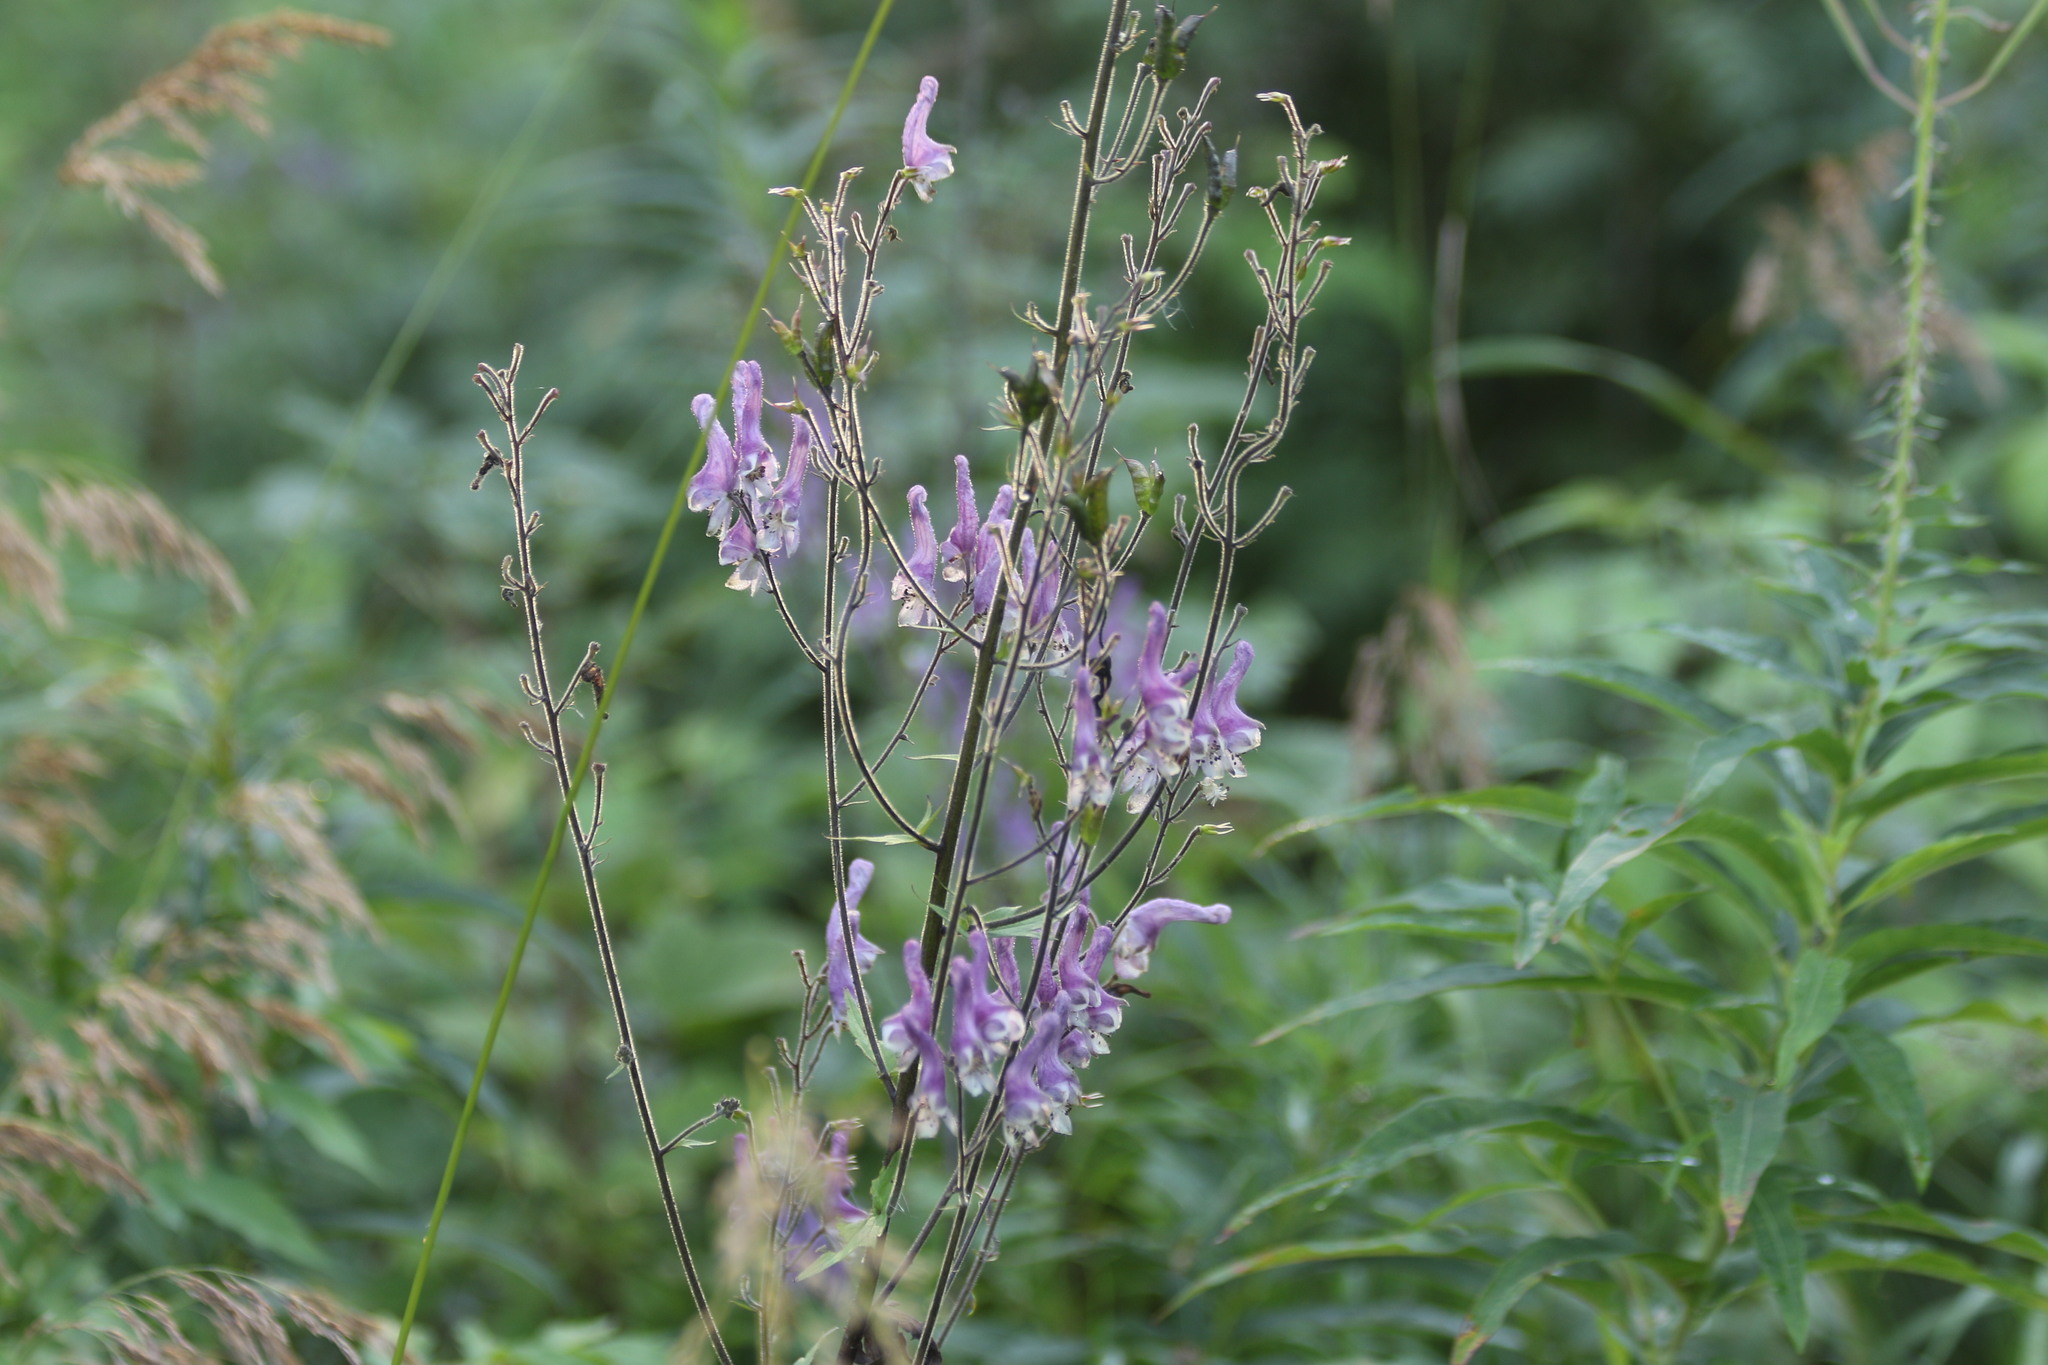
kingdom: Plantae
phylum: Tracheophyta
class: Magnoliopsida
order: Ranunculales
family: Ranunculaceae
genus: Aconitum
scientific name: Aconitum septentrionale
